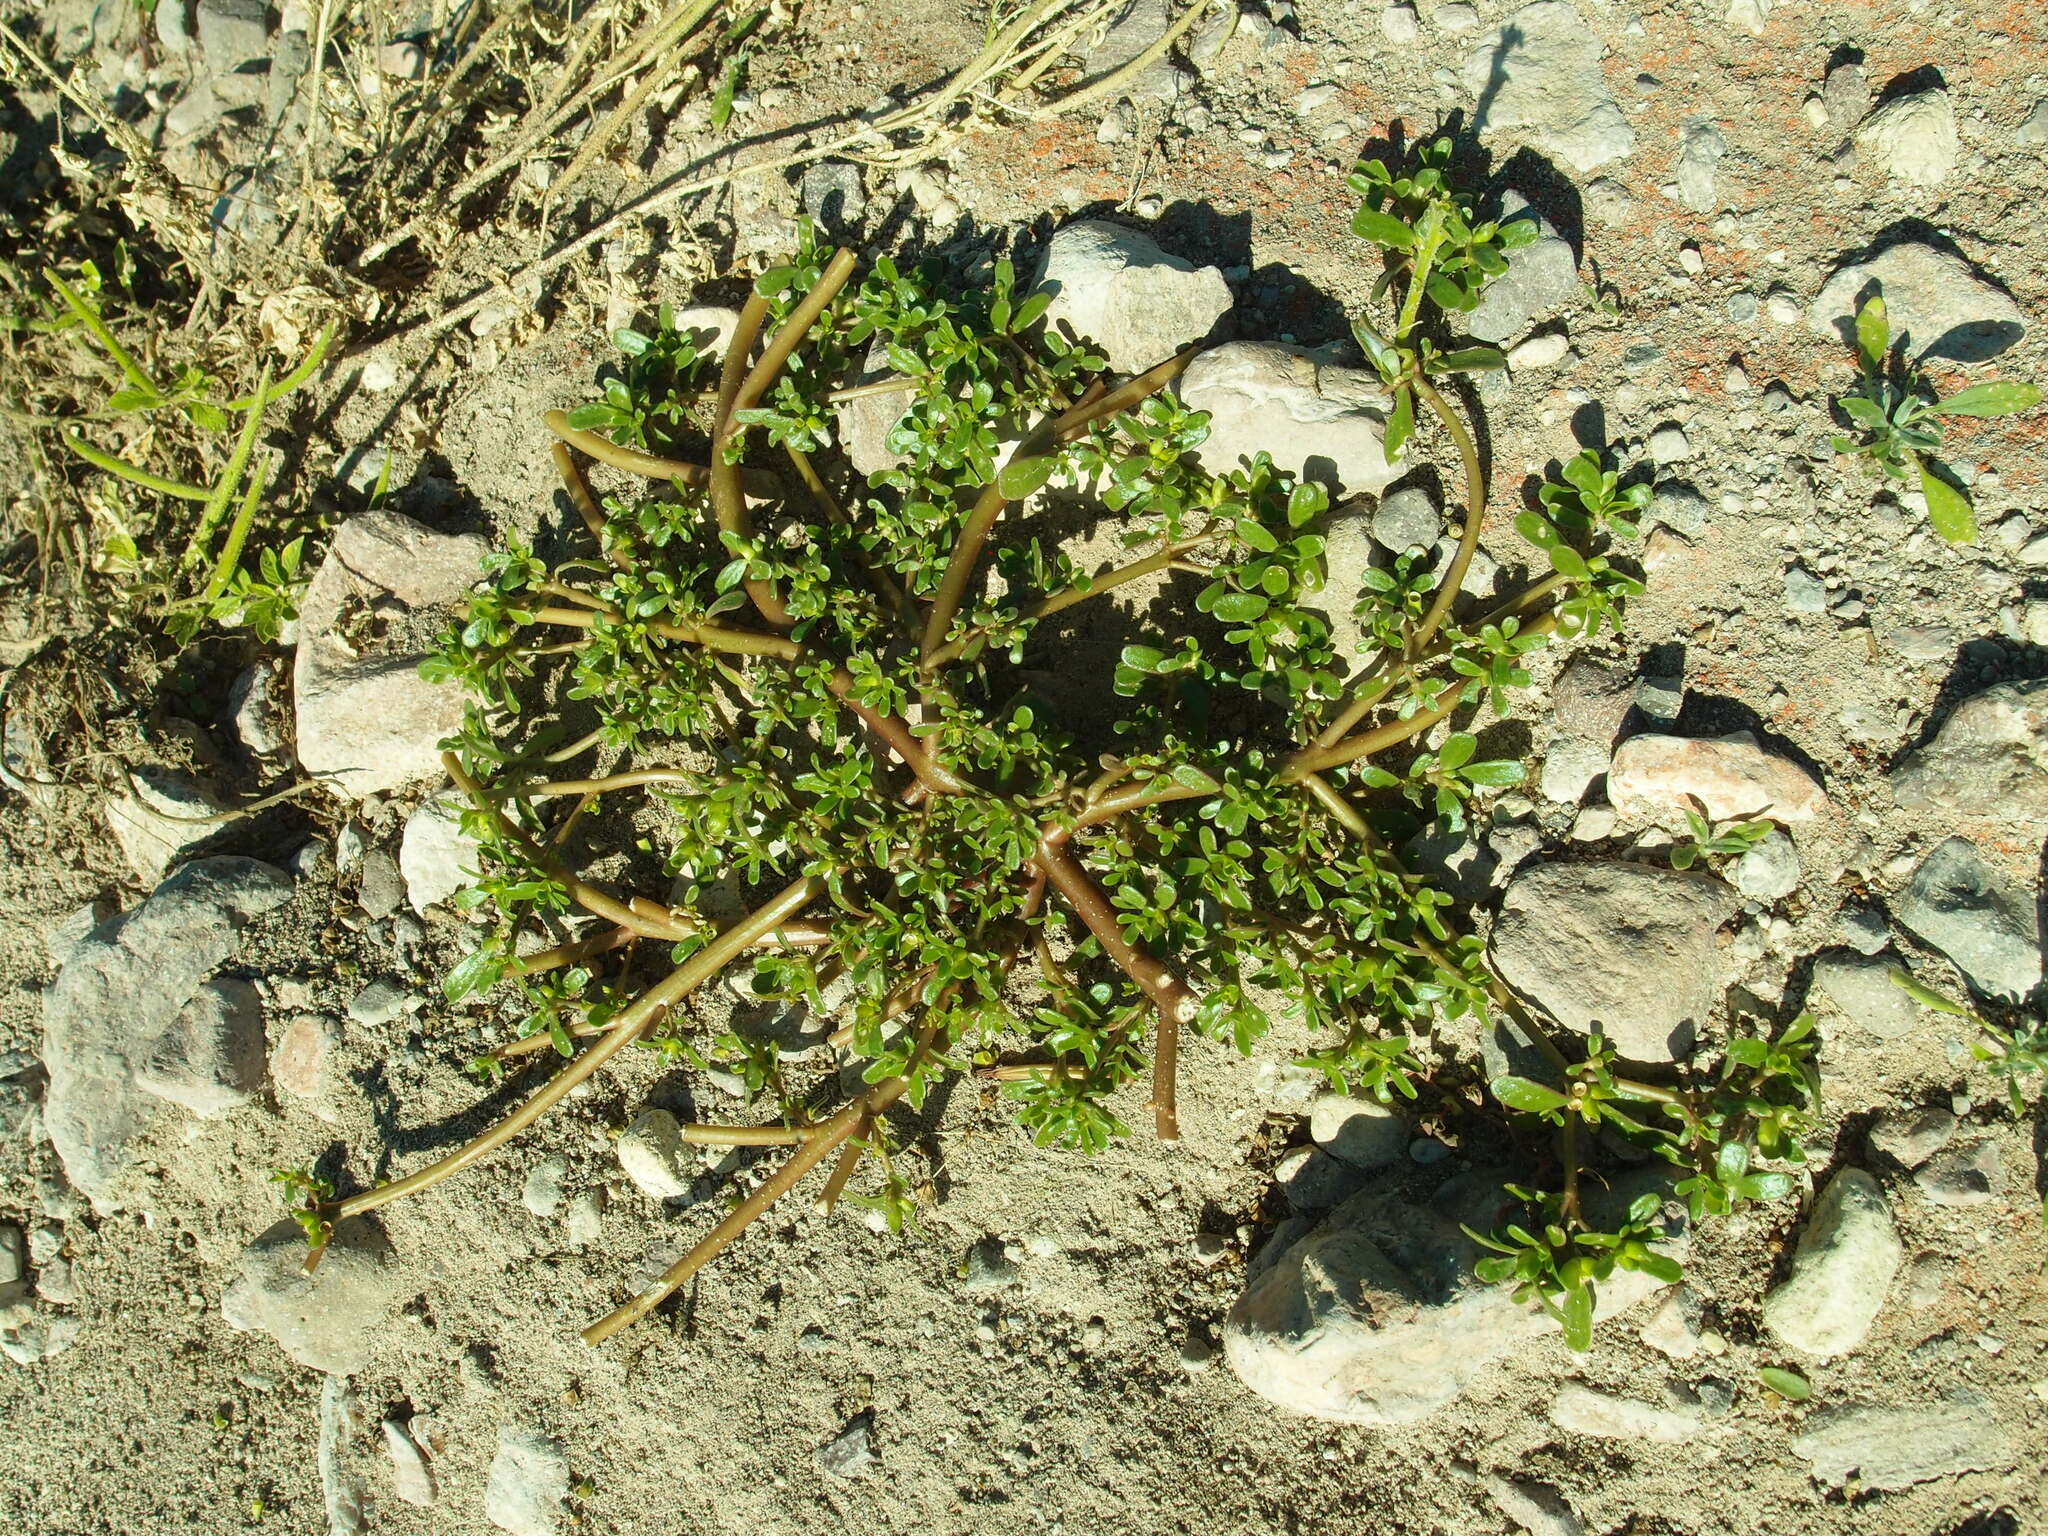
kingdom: Plantae
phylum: Tracheophyta
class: Magnoliopsida
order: Caryophyllales
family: Portulacaceae
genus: Portulaca
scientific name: Portulaca oleracea
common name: Common purslane
